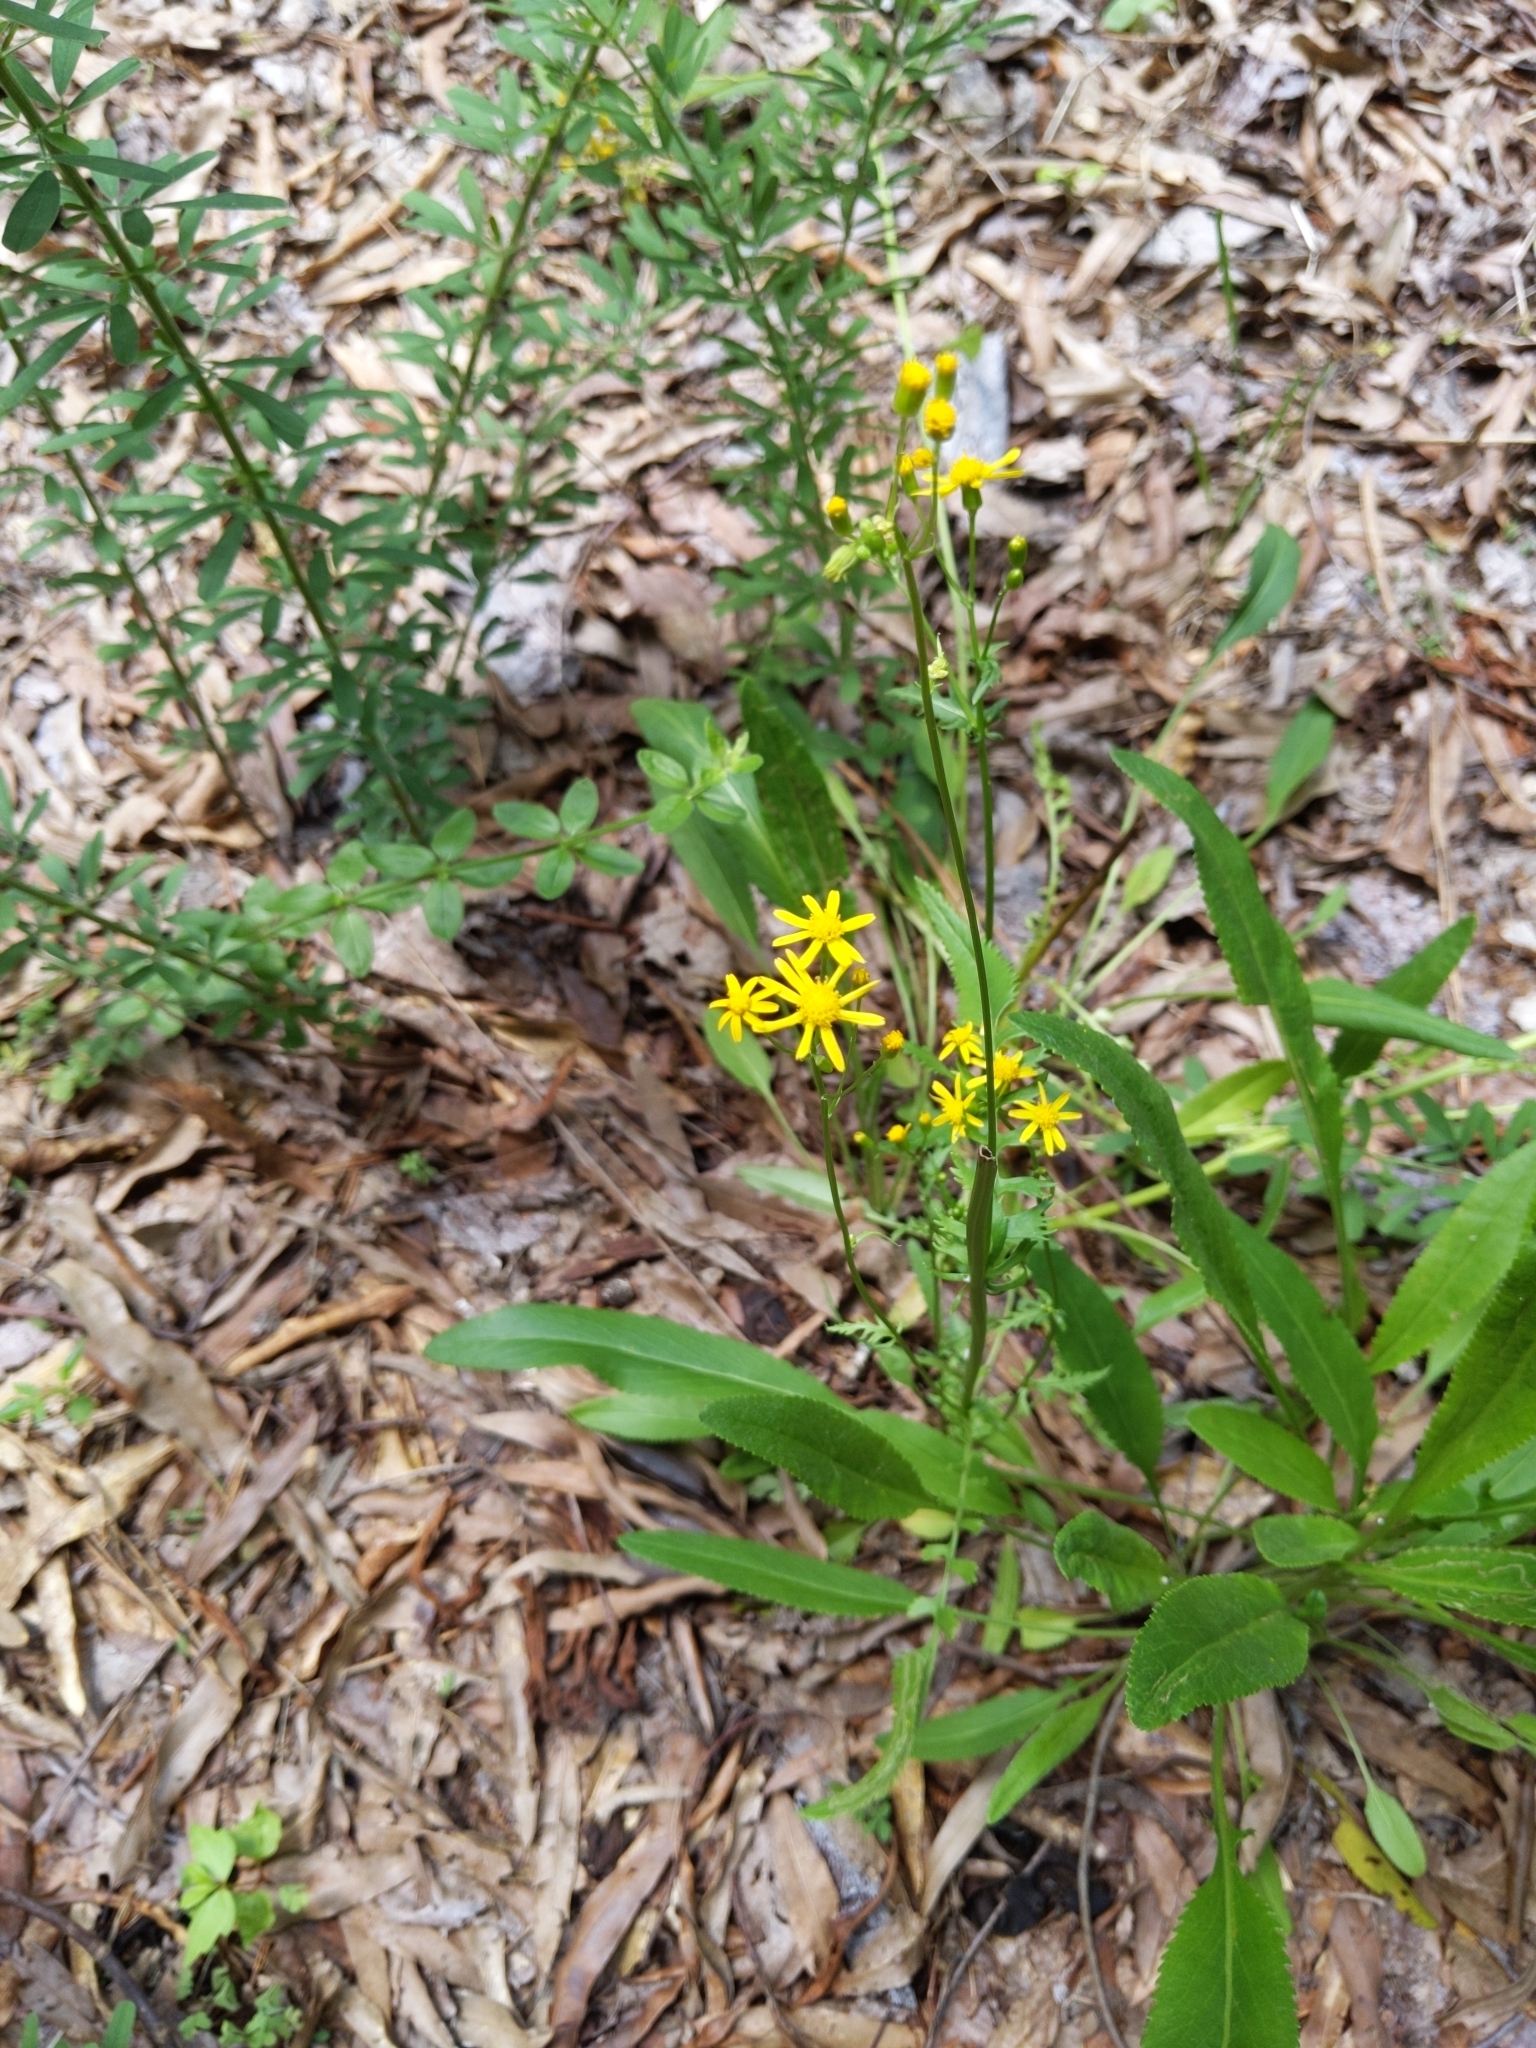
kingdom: Plantae
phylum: Tracheophyta
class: Magnoliopsida
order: Asterales
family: Asteraceae
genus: Packera
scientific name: Packera anonyma
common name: Small ragwort
